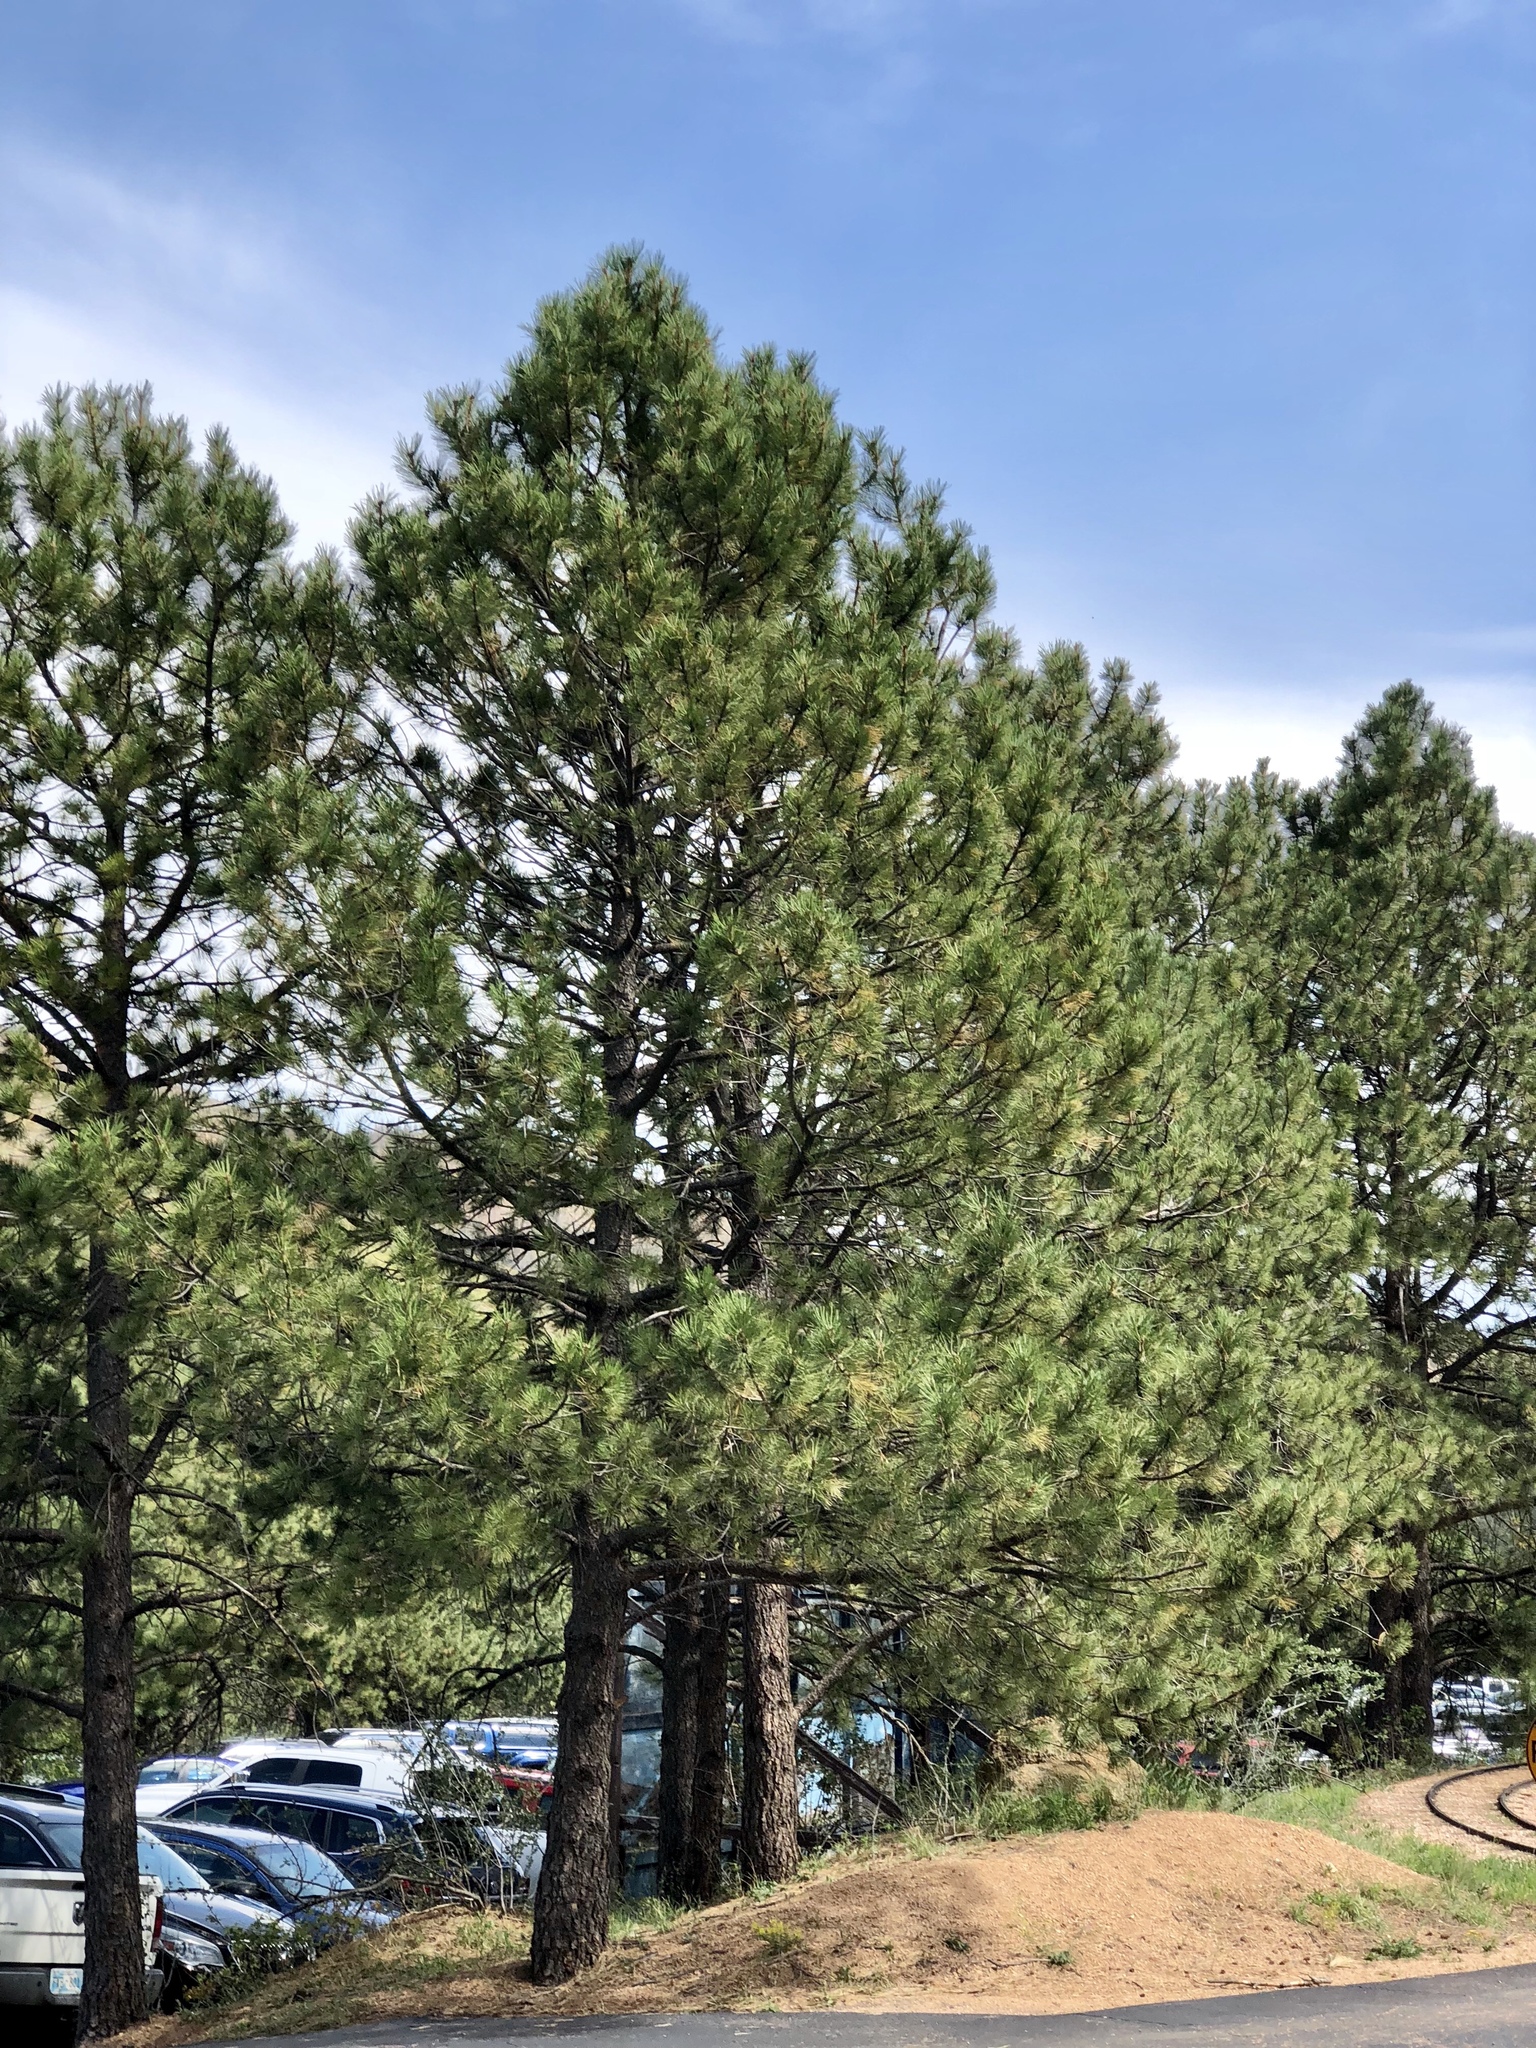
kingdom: Plantae
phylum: Tracheophyta
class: Pinopsida
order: Pinales
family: Pinaceae
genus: Pinus
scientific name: Pinus ponderosa
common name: Western yellow-pine
